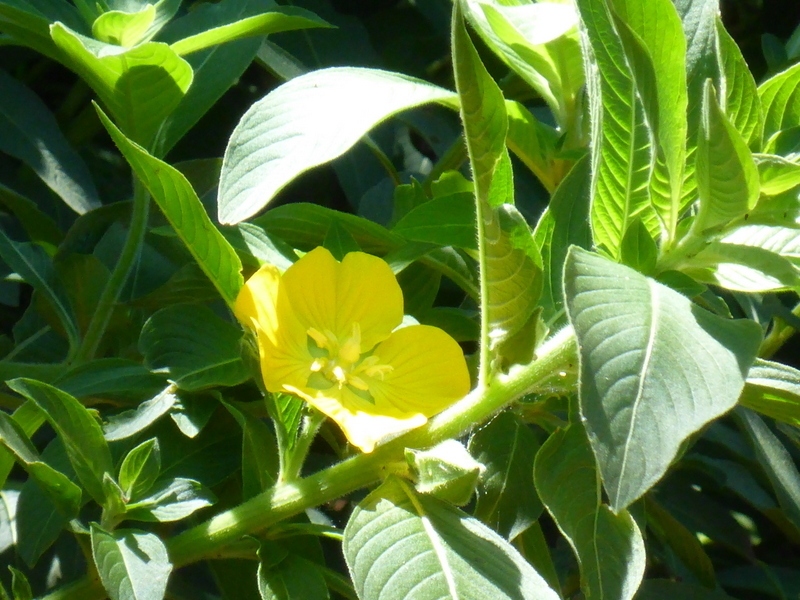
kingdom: Plantae
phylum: Tracheophyta
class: Magnoliopsida
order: Myrtales
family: Onagraceae
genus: Ludwigia
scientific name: Ludwigia peruviana
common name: Peruvian primrose-willow
